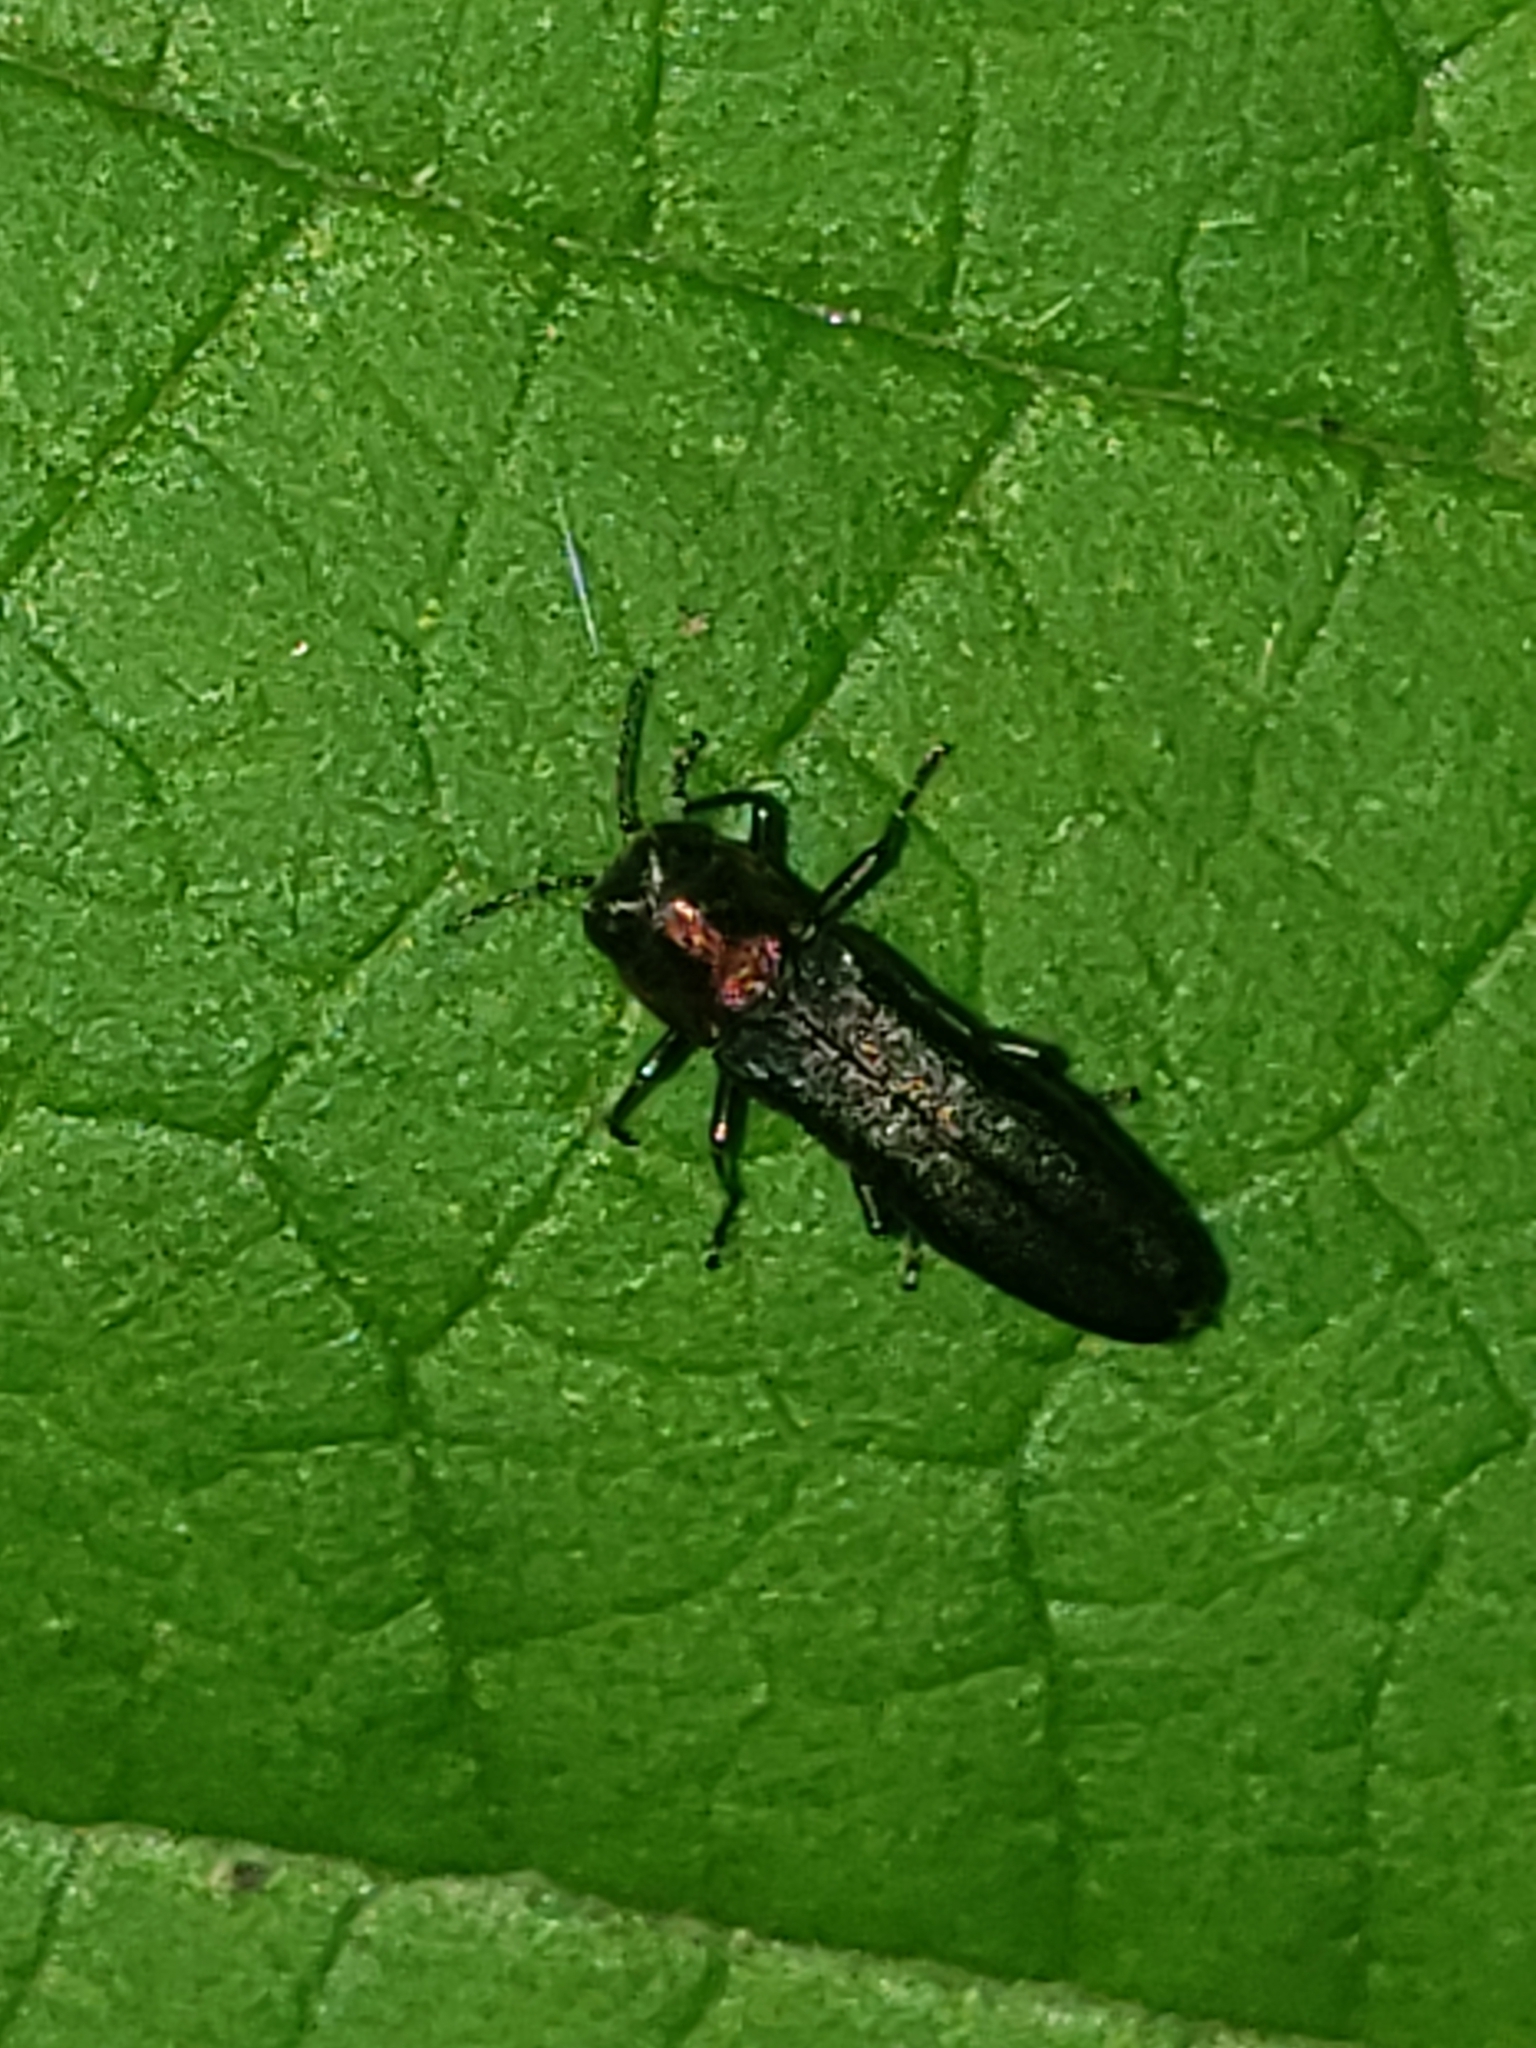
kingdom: Animalia
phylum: Arthropoda
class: Insecta
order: Coleoptera
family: Buprestidae
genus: Agrilus
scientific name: Agrilus ruficollis
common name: Red-necked cane borer beetle
